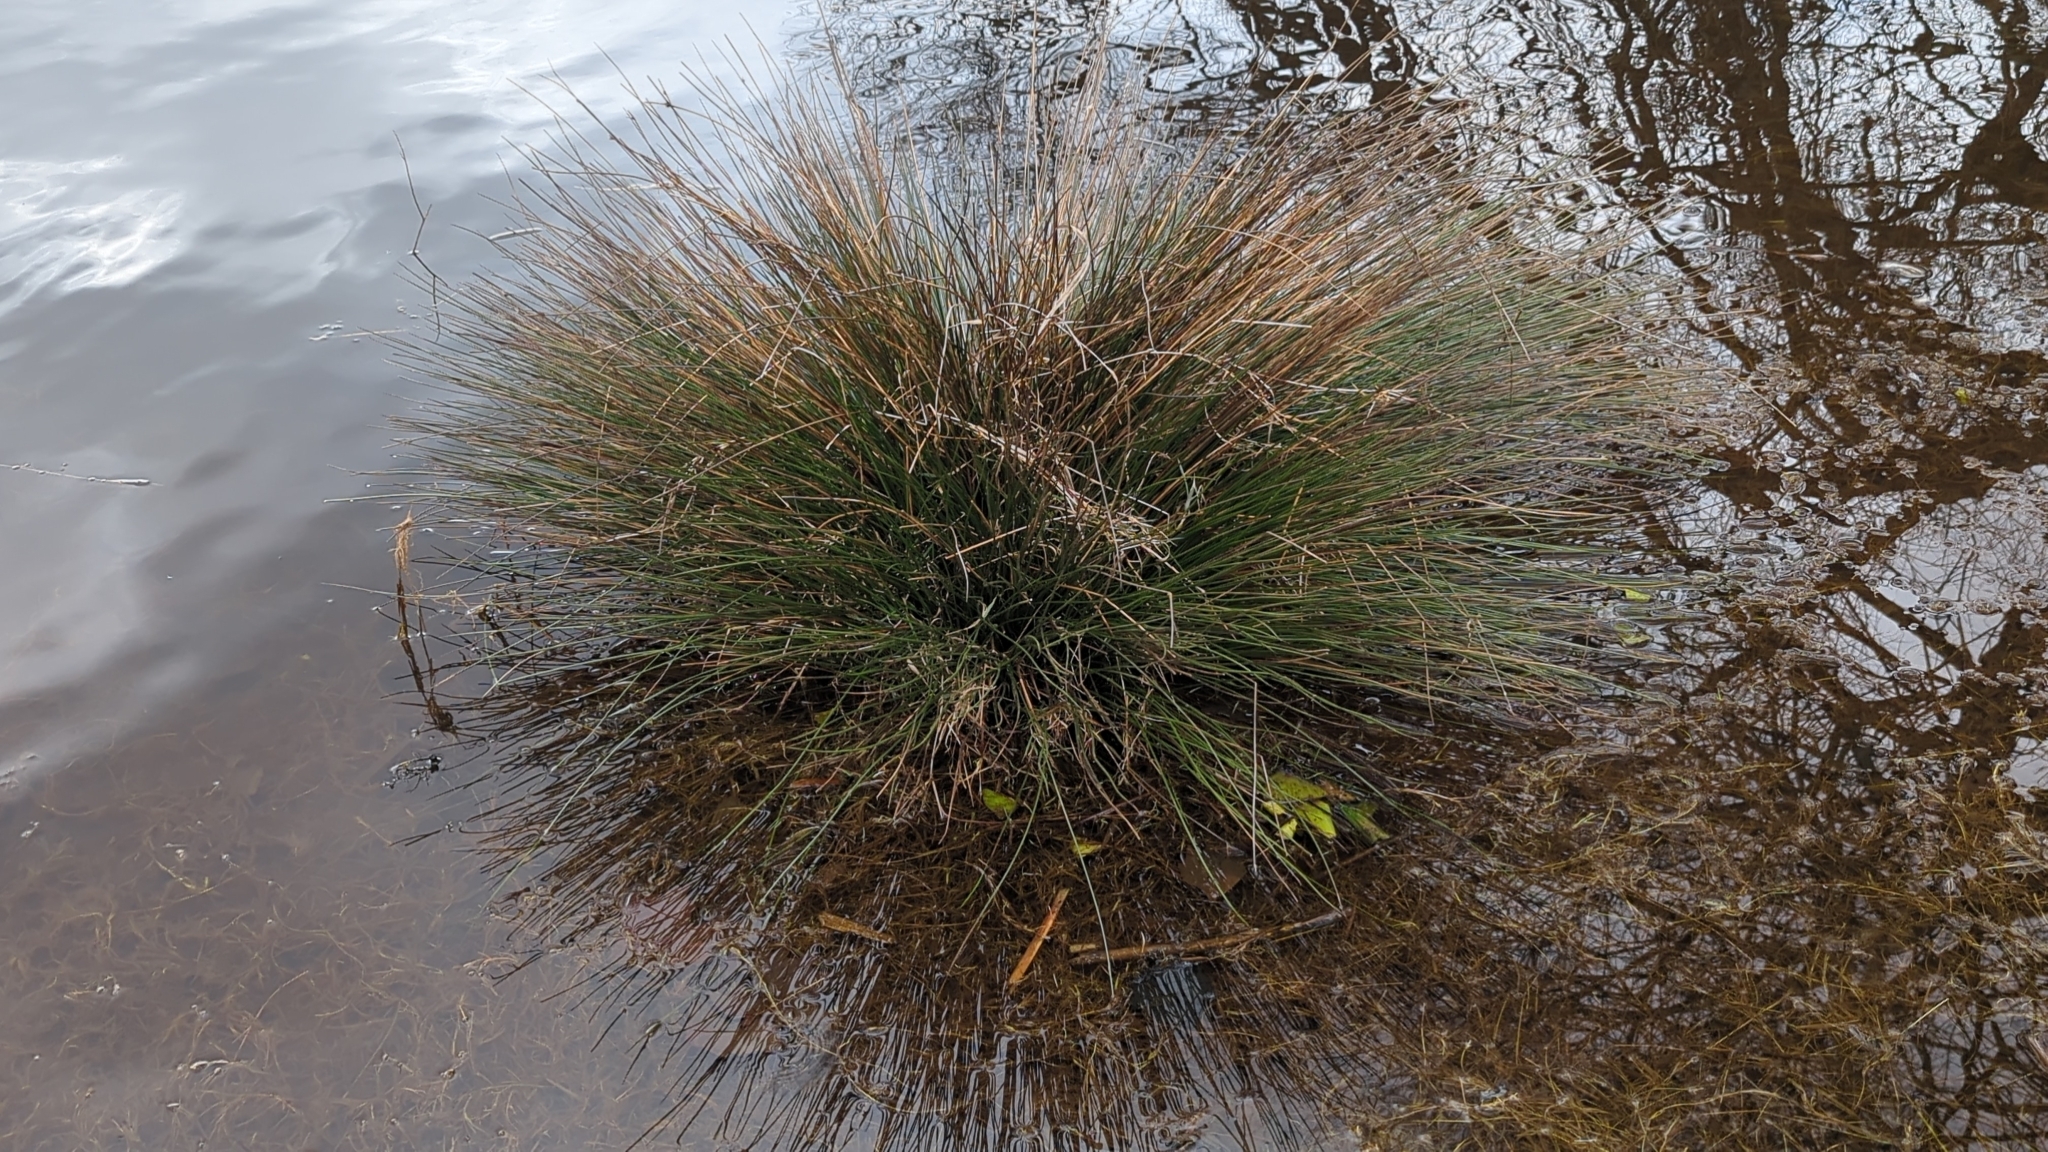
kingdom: Plantae
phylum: Tracheophyta
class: Liliopsida
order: Poales
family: Juncaceae
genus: Juncus
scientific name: Juncus effusus
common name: Soft rush
